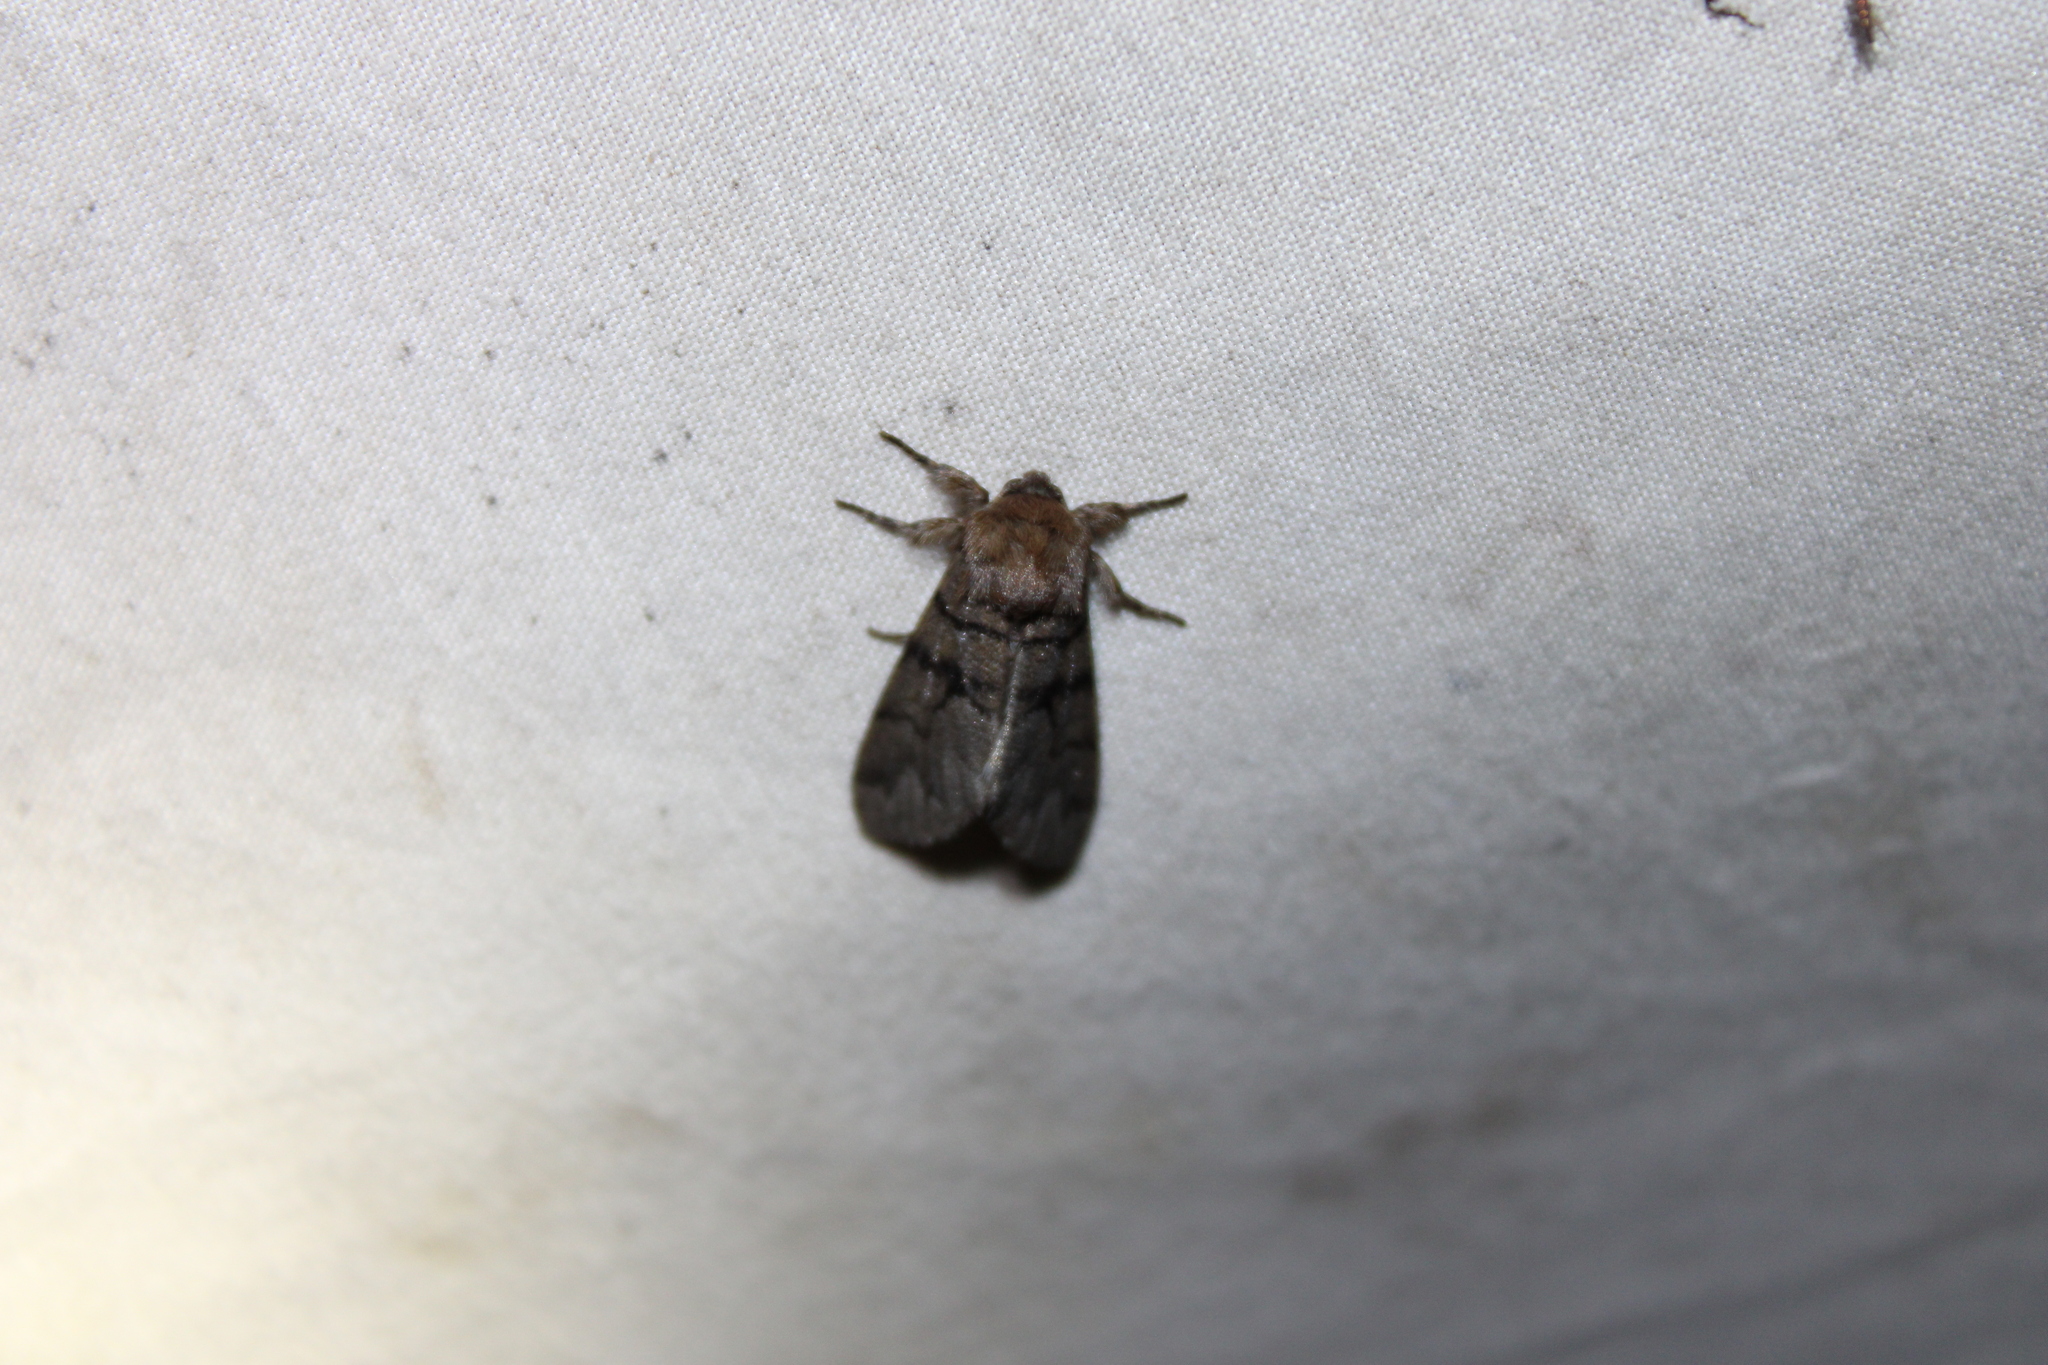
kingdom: Animalia
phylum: Arthropoda
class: Insecta
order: Lepidoptera
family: Noctuidae
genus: Panthea
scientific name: Panthea furcilla
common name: Eastern panthea moth
